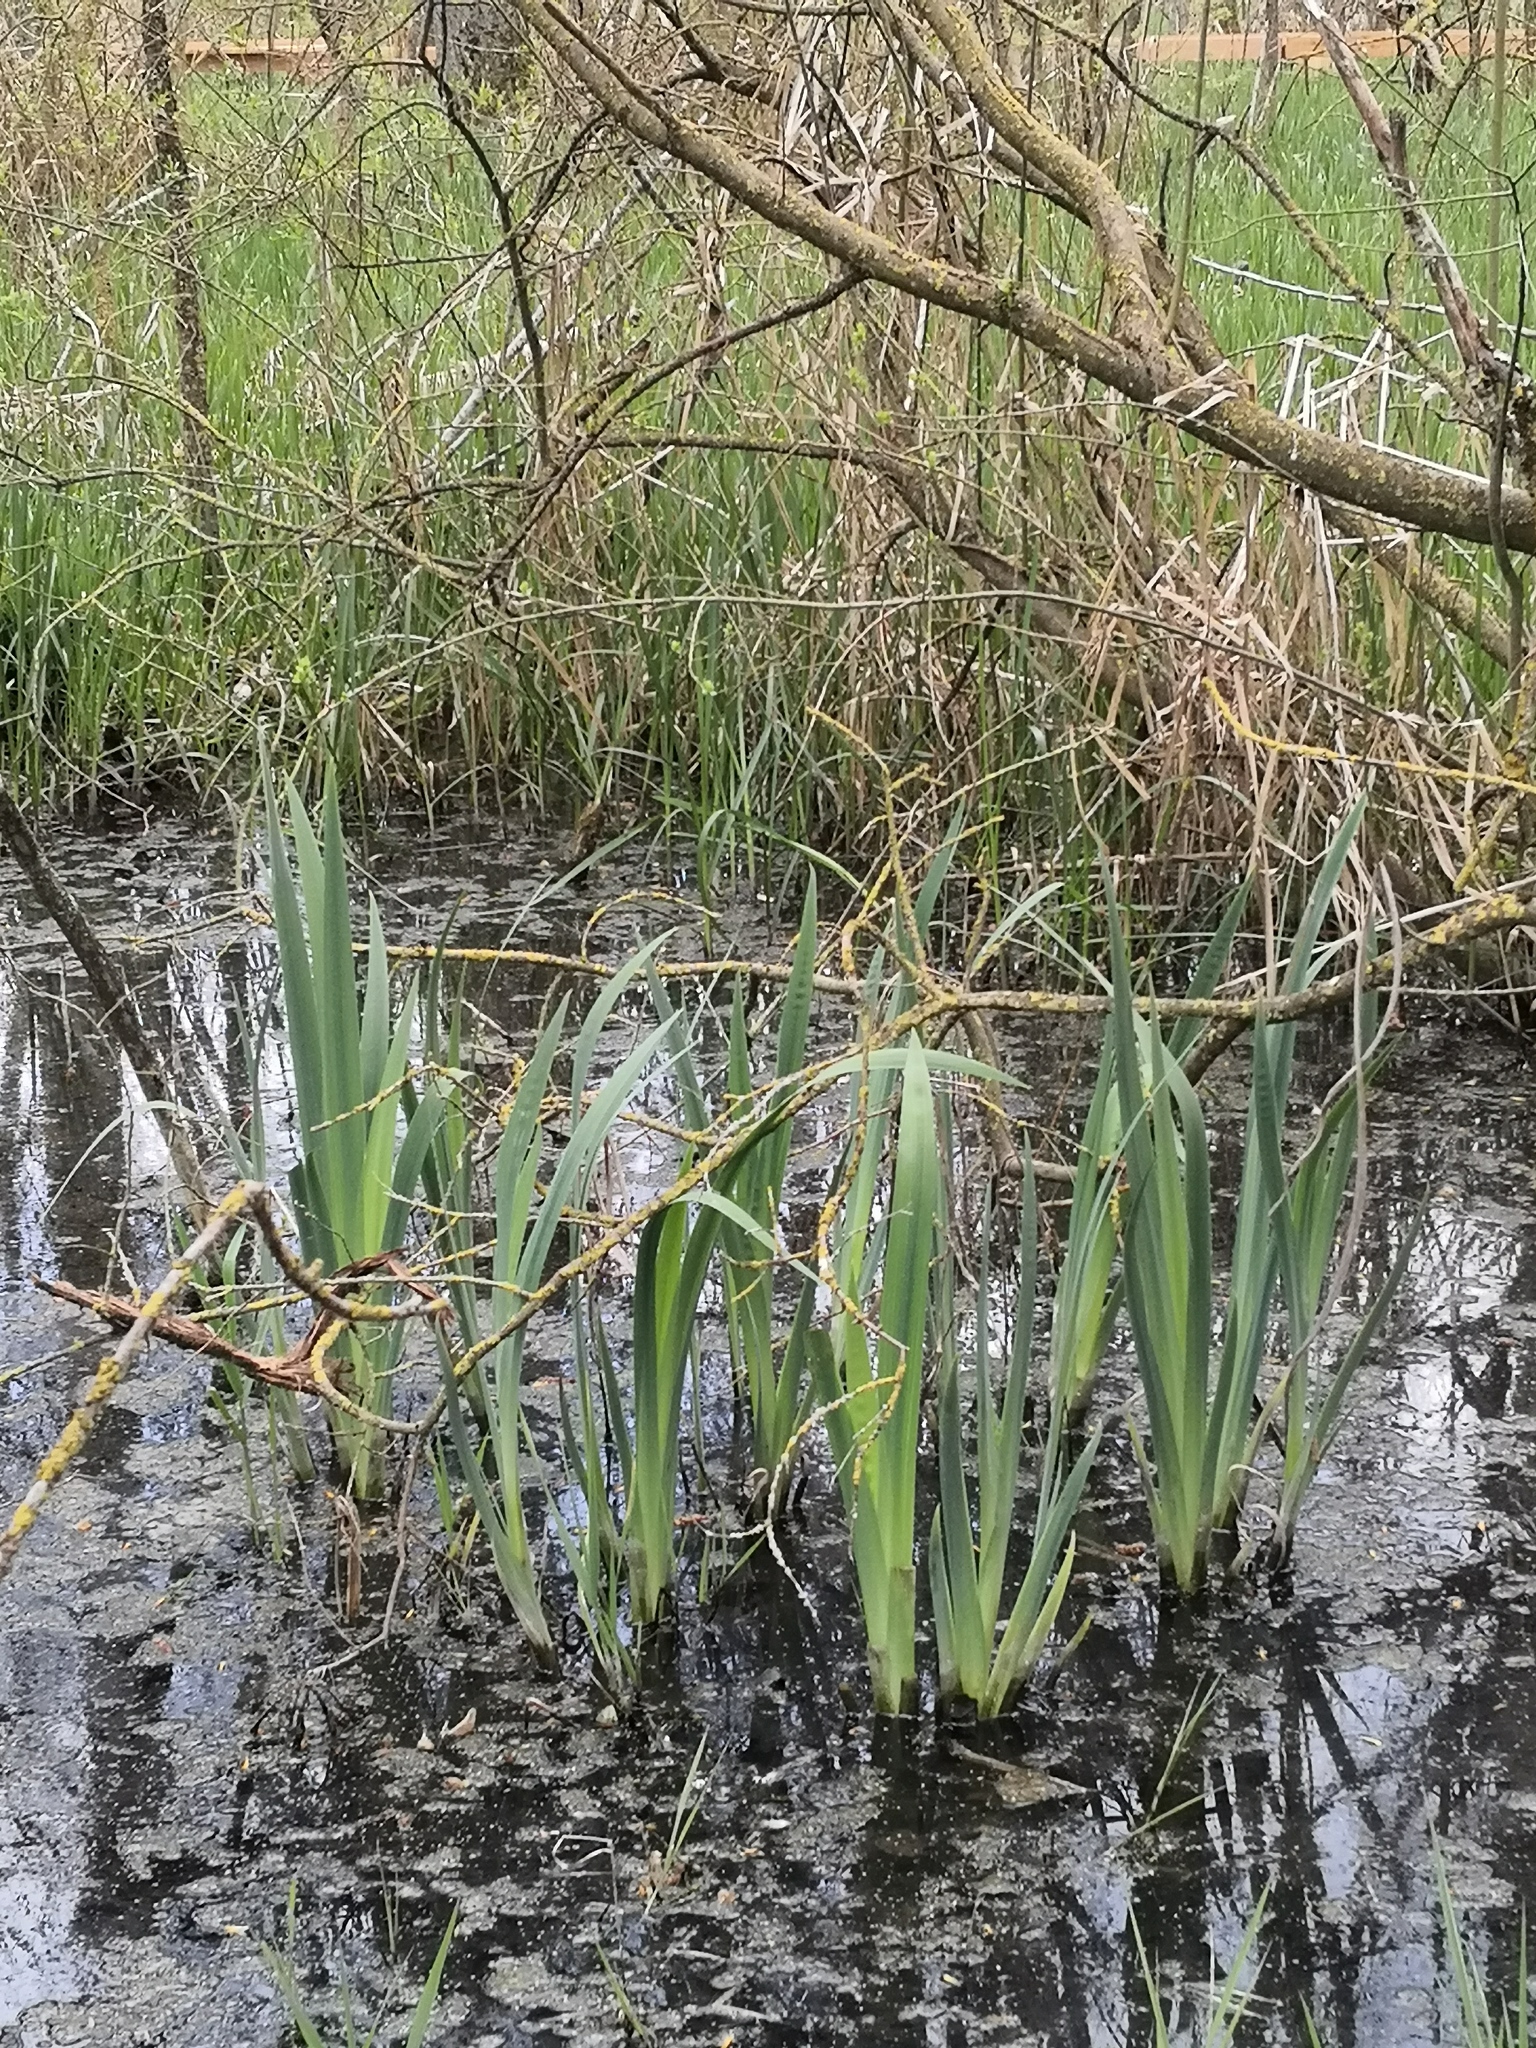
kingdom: Plantae
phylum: Tracheophyta
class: Liliopsida
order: Asparagales
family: Iridaceae
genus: Iris
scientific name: Iris pseudacorus
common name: Yellow flag
